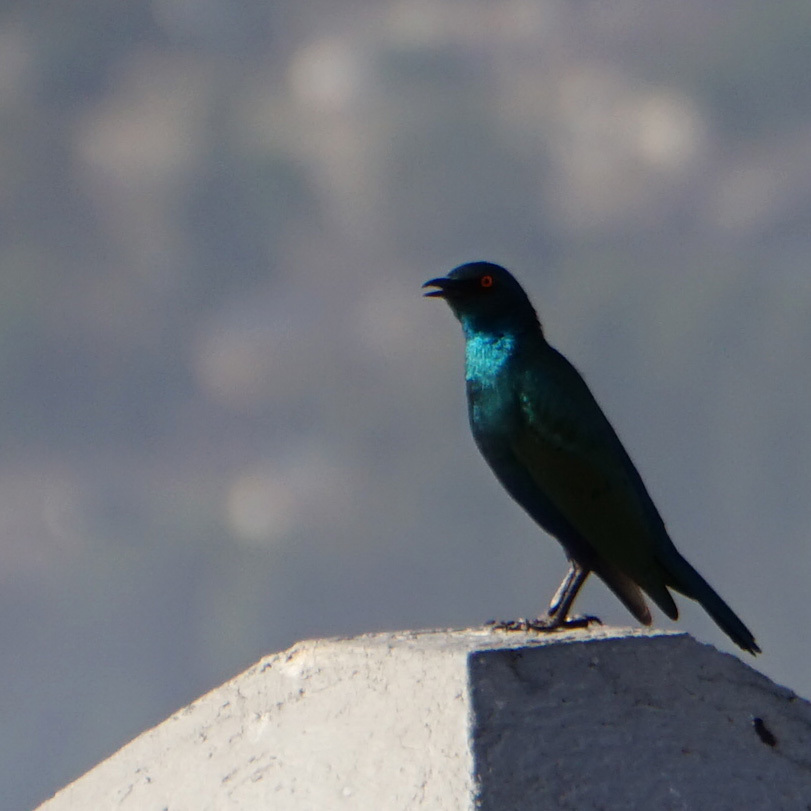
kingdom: Animalia
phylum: Chordata
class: Aves
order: Passeriformes
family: Sturnidae
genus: Lamprotornis
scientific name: Lamprotornis chalybaeus
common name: Greater blue-eared starling
